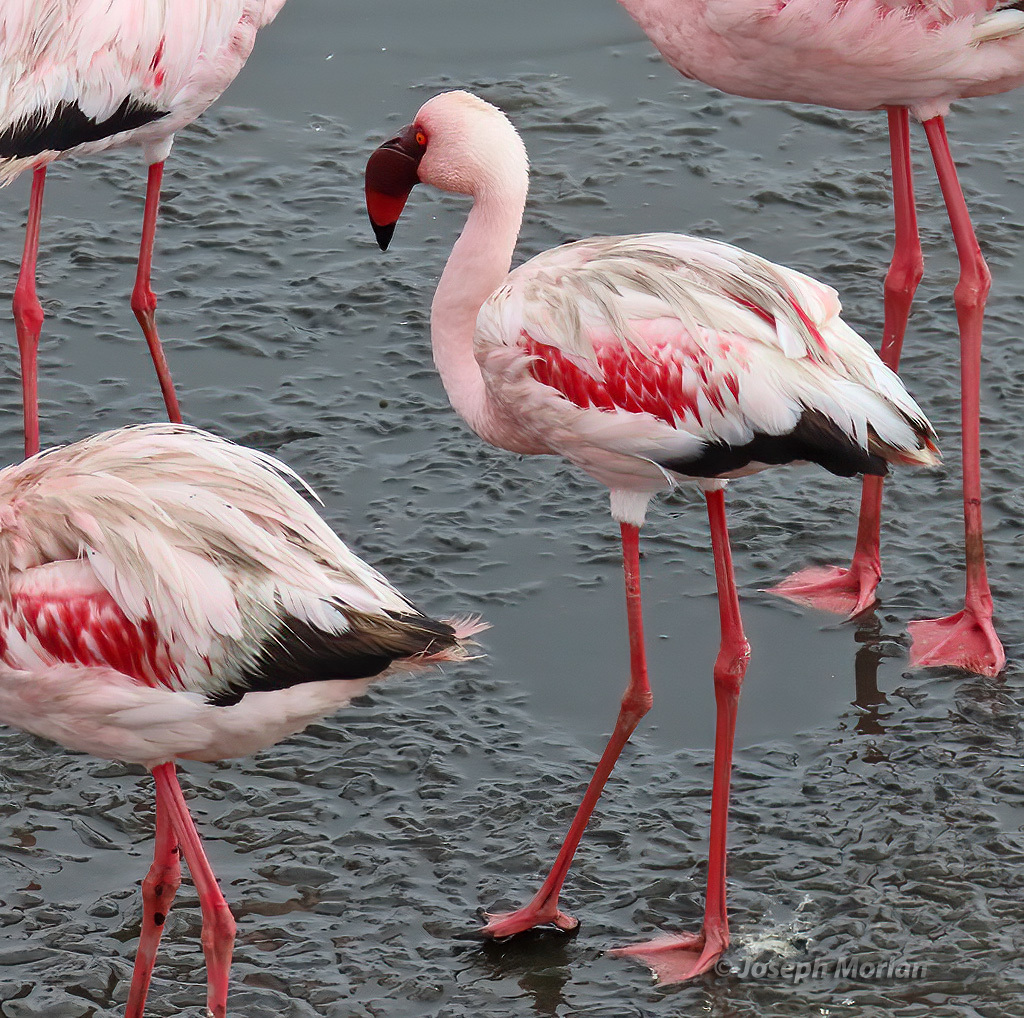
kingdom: Animalia
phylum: Chordata
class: Aves
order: Phoenicopteriformes
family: Phoenicopteridae
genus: Phoeniconaias
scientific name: Phoeniconaias minor
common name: Lesser flamingo
